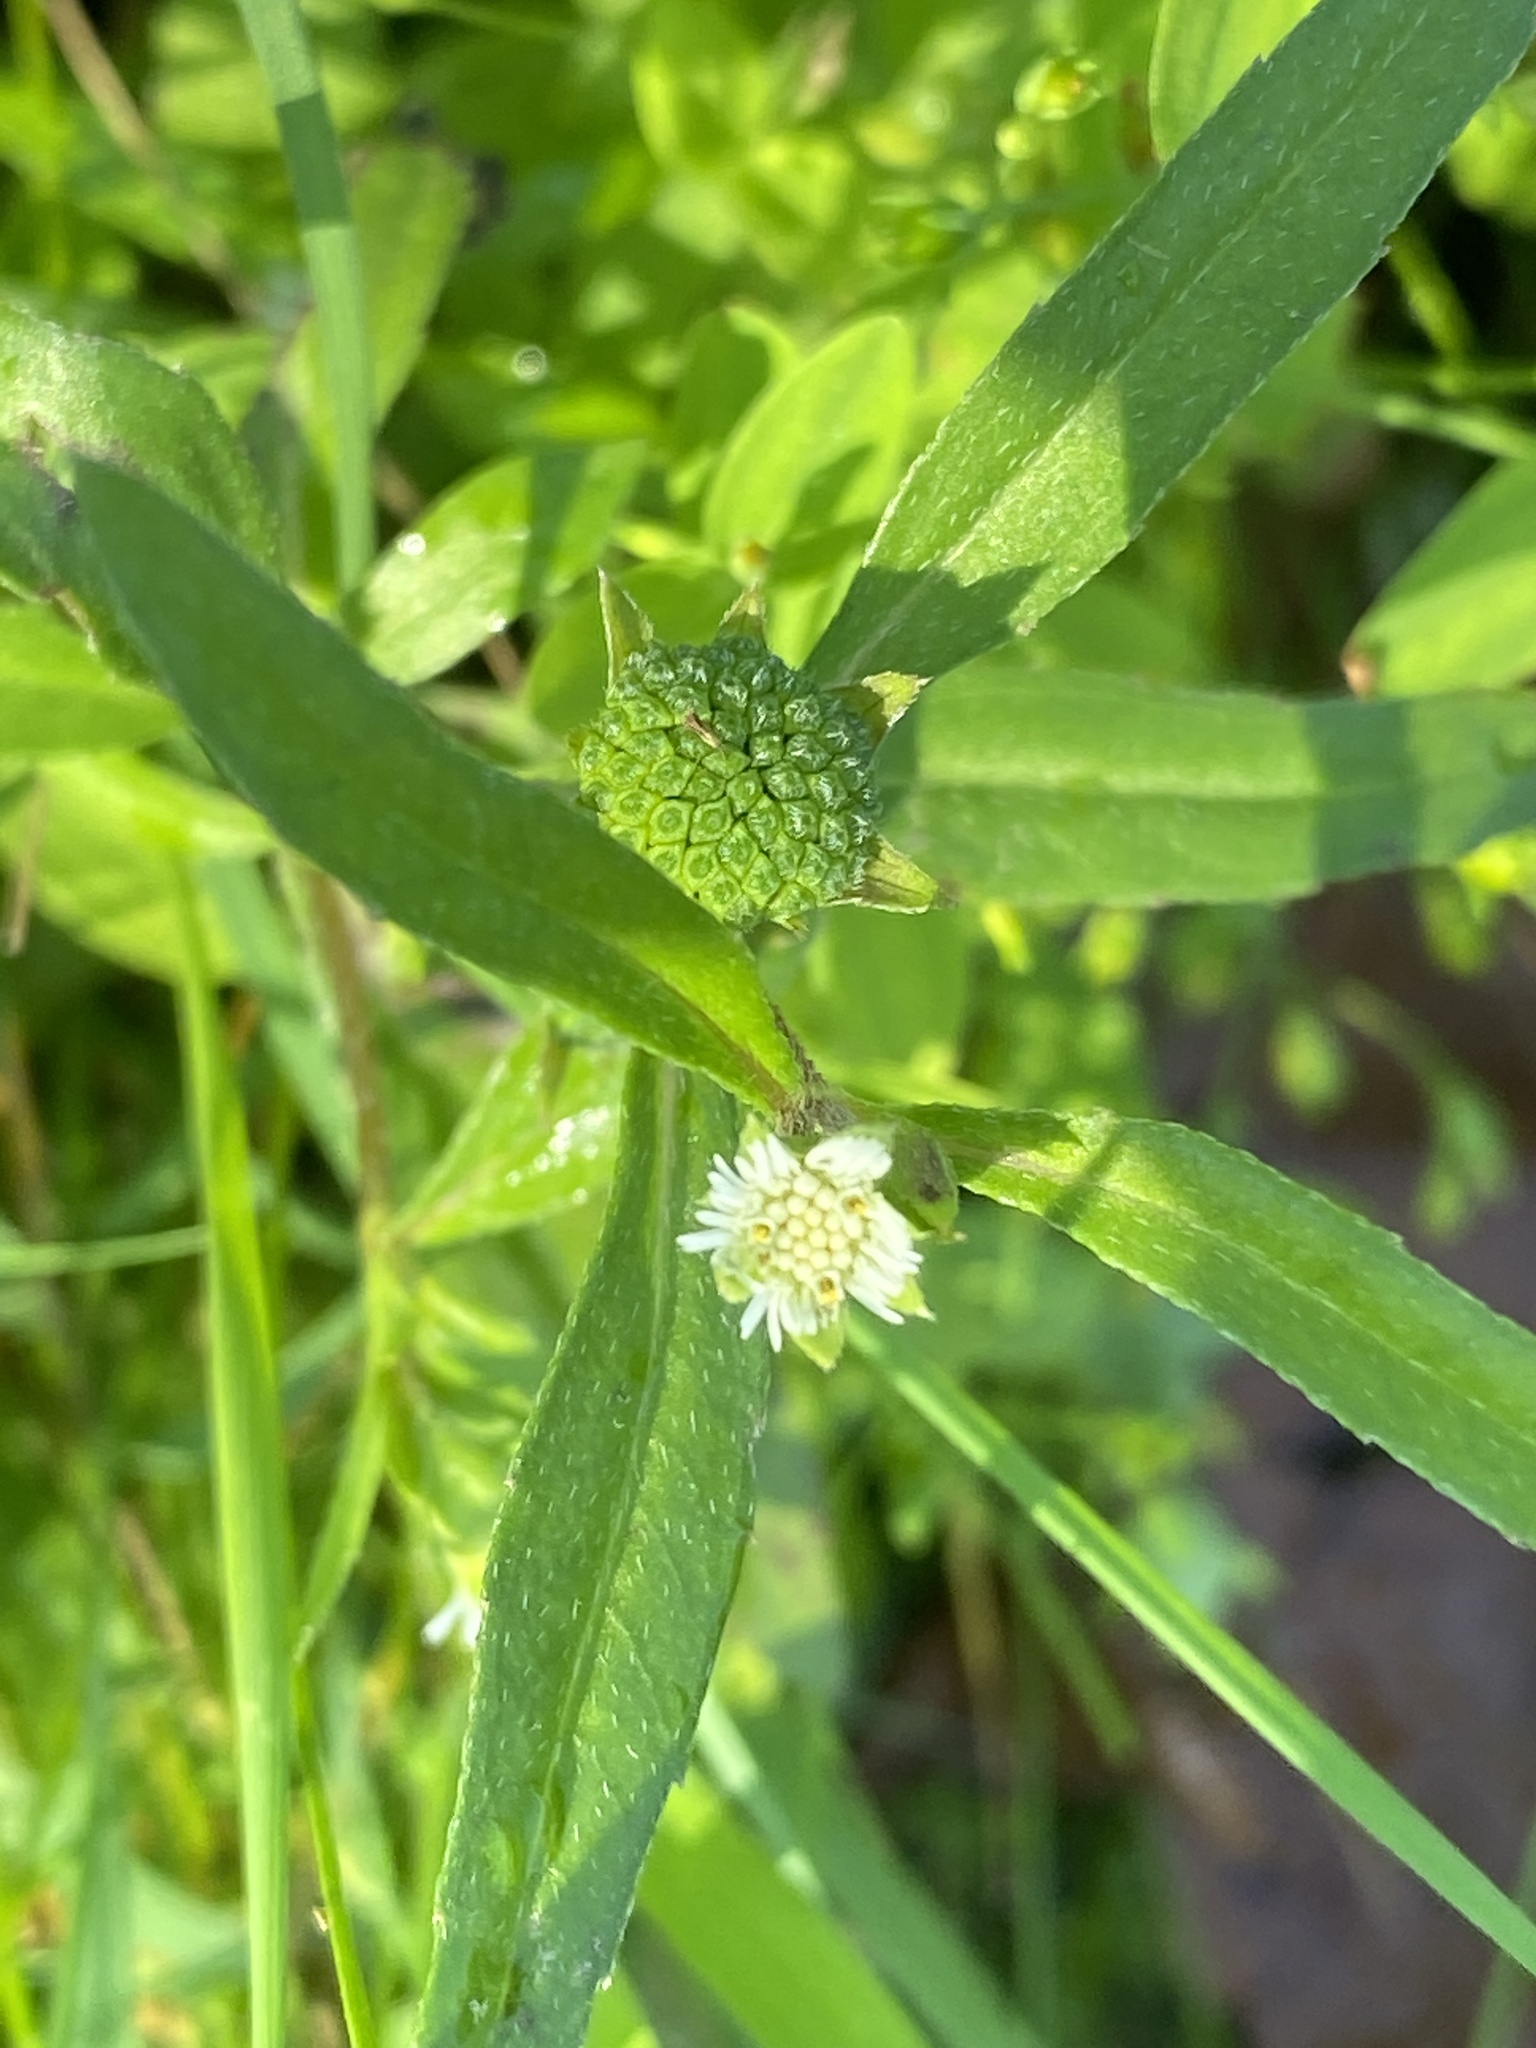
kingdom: Plantae
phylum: Tracheophyta
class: Magnoliopsida
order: Asterales
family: Asteraceae
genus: Eclipta
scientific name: Eclipta prostrata
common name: False daisy
